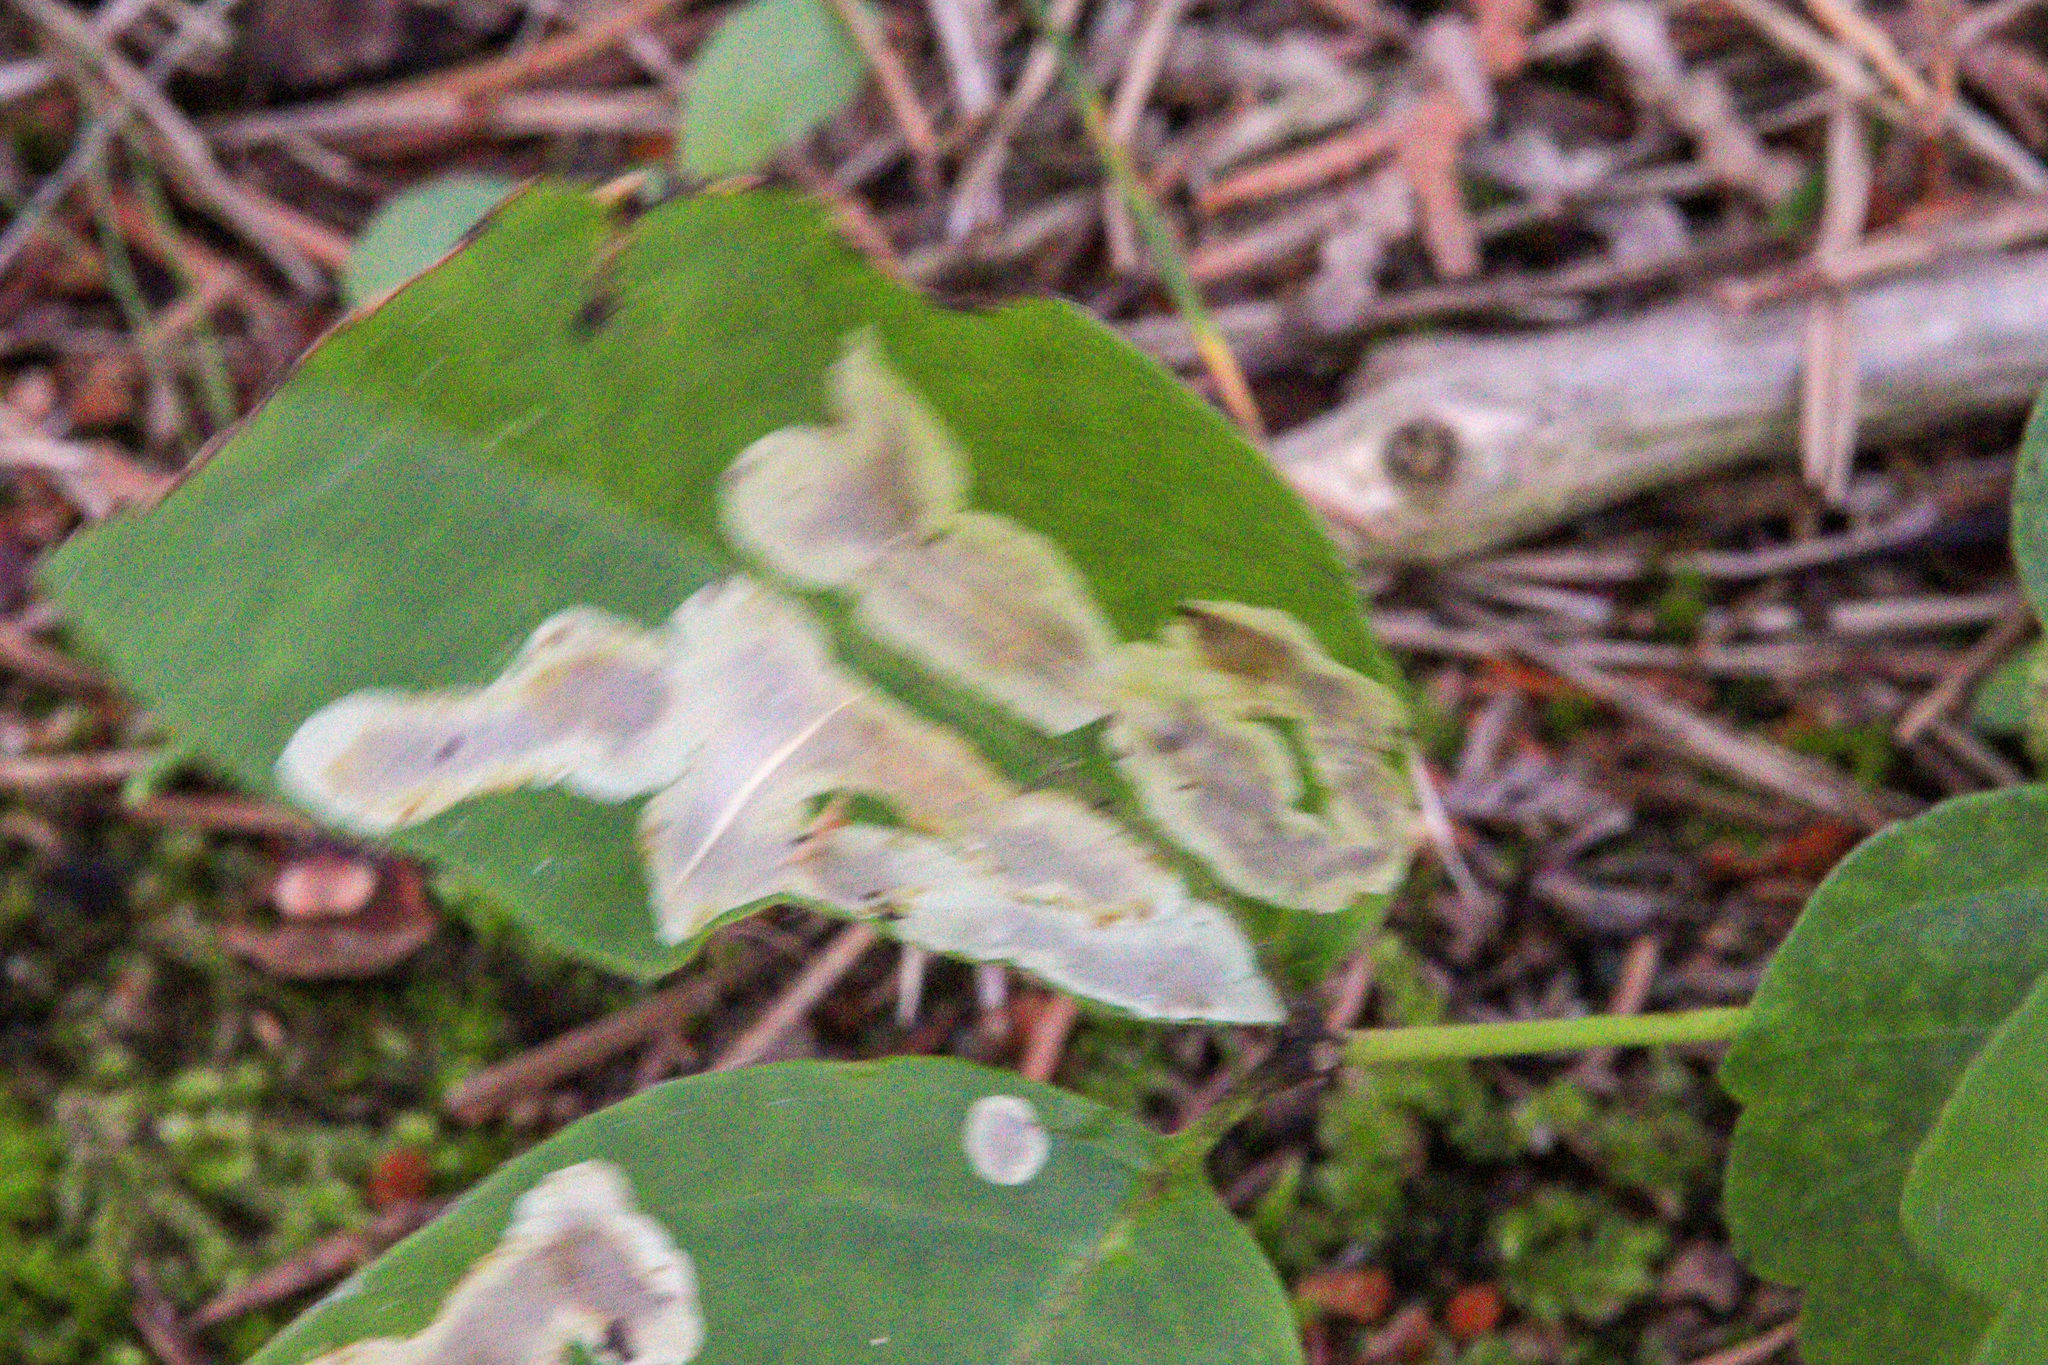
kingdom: Animalia
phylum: Arthropoda
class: Insecta
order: Lepidoptera
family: Gracillariidae
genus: Cameraria
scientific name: Cameraria guttifinitella
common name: Poison ivy leaf-miner moth
